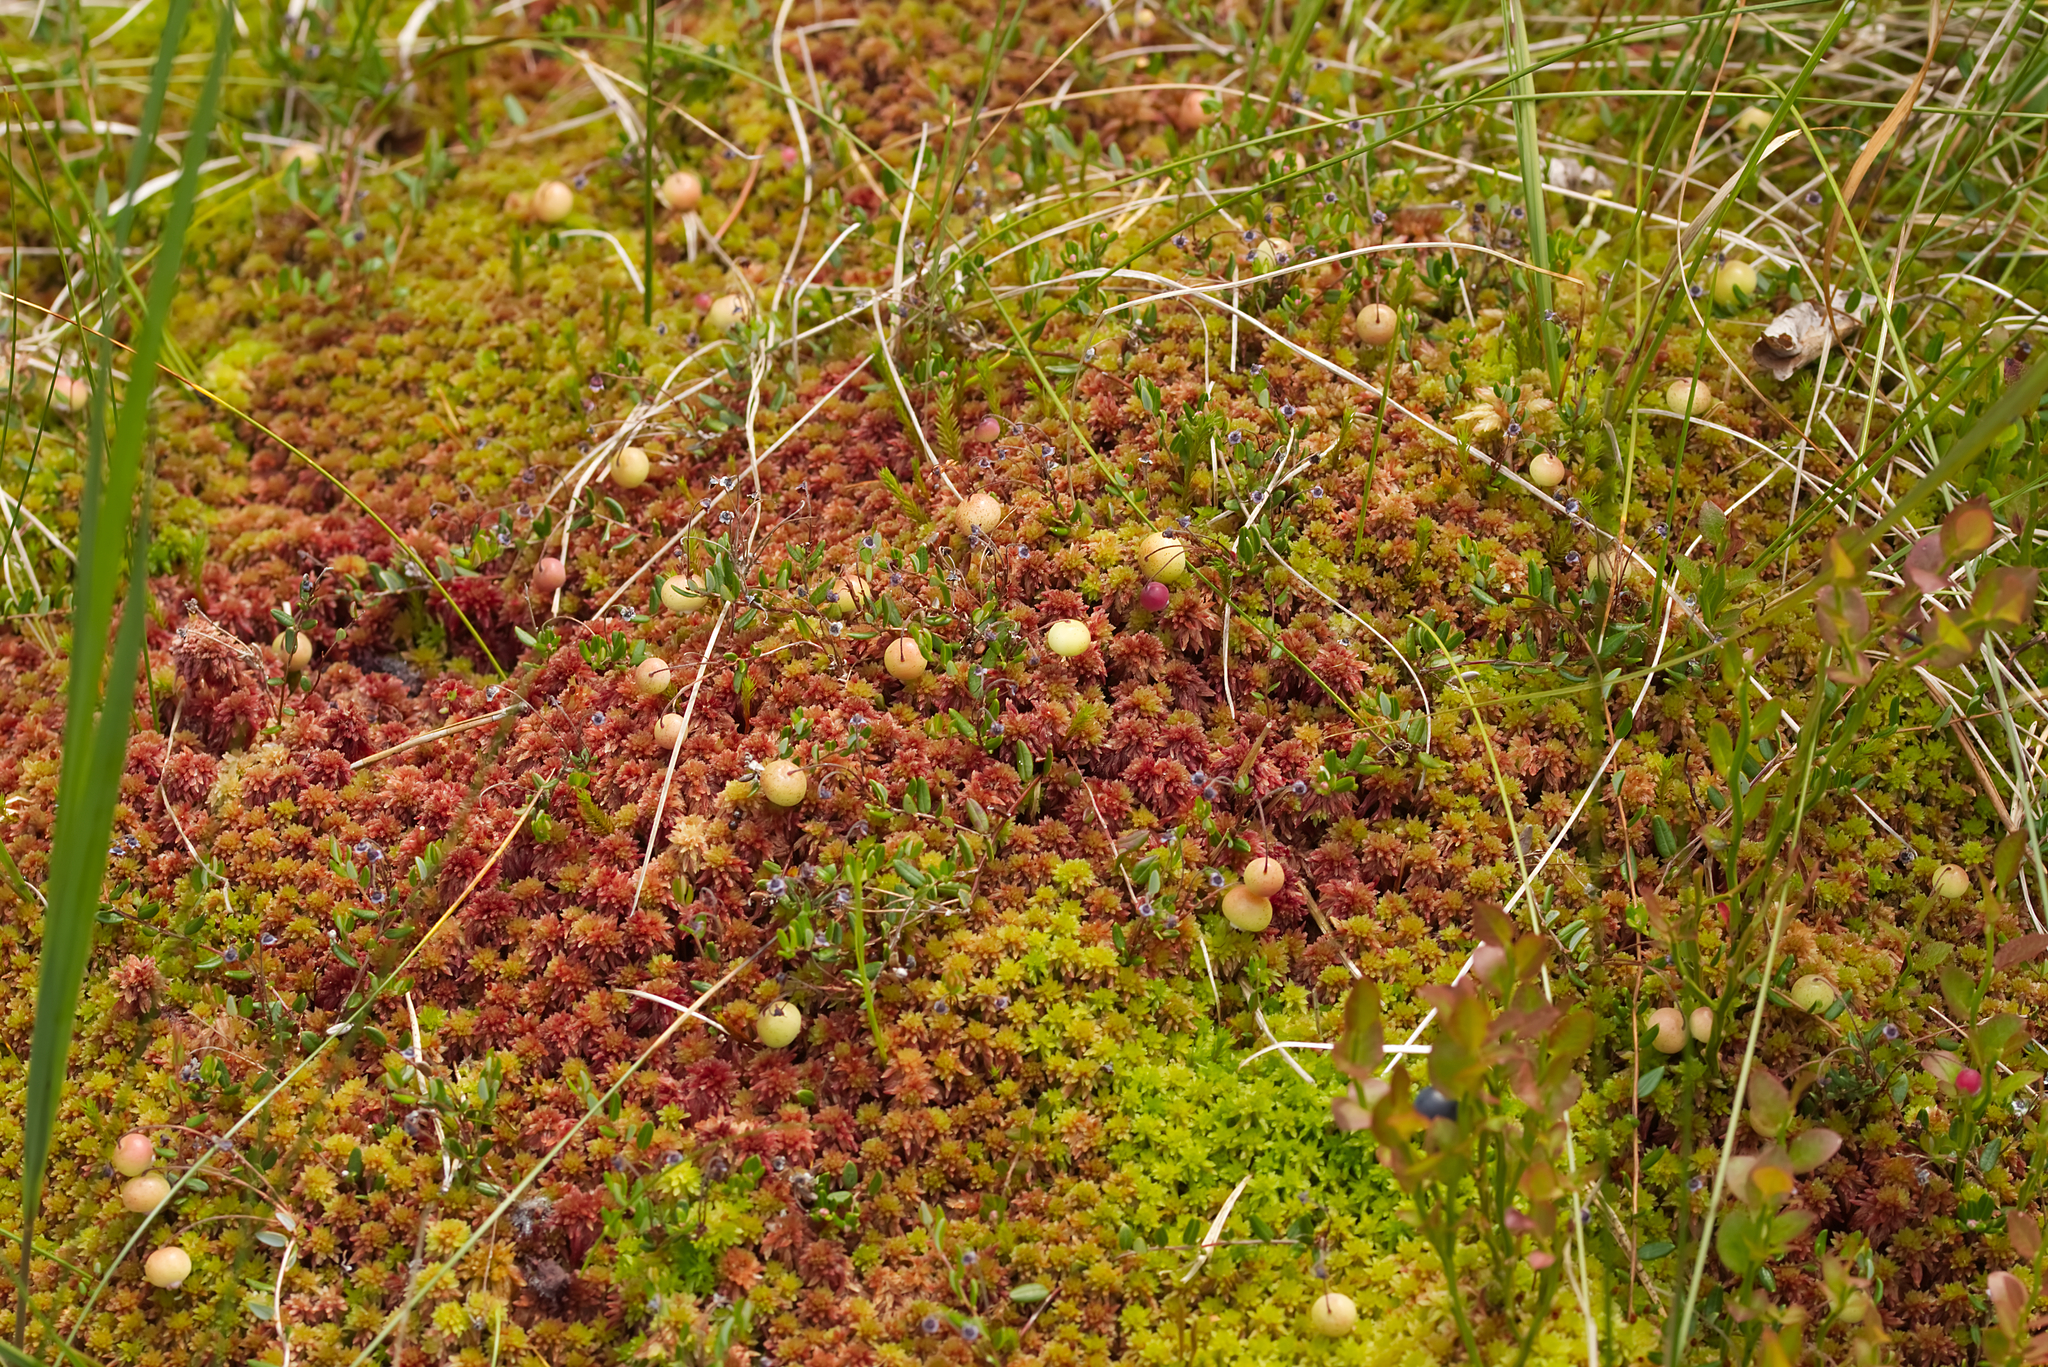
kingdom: Plantae
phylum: Tracheophyta
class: Magnoliopsida
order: Ericales
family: Ericaceae
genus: Vaccinium
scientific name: Vaccinium oxycoccos
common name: Cranberry
